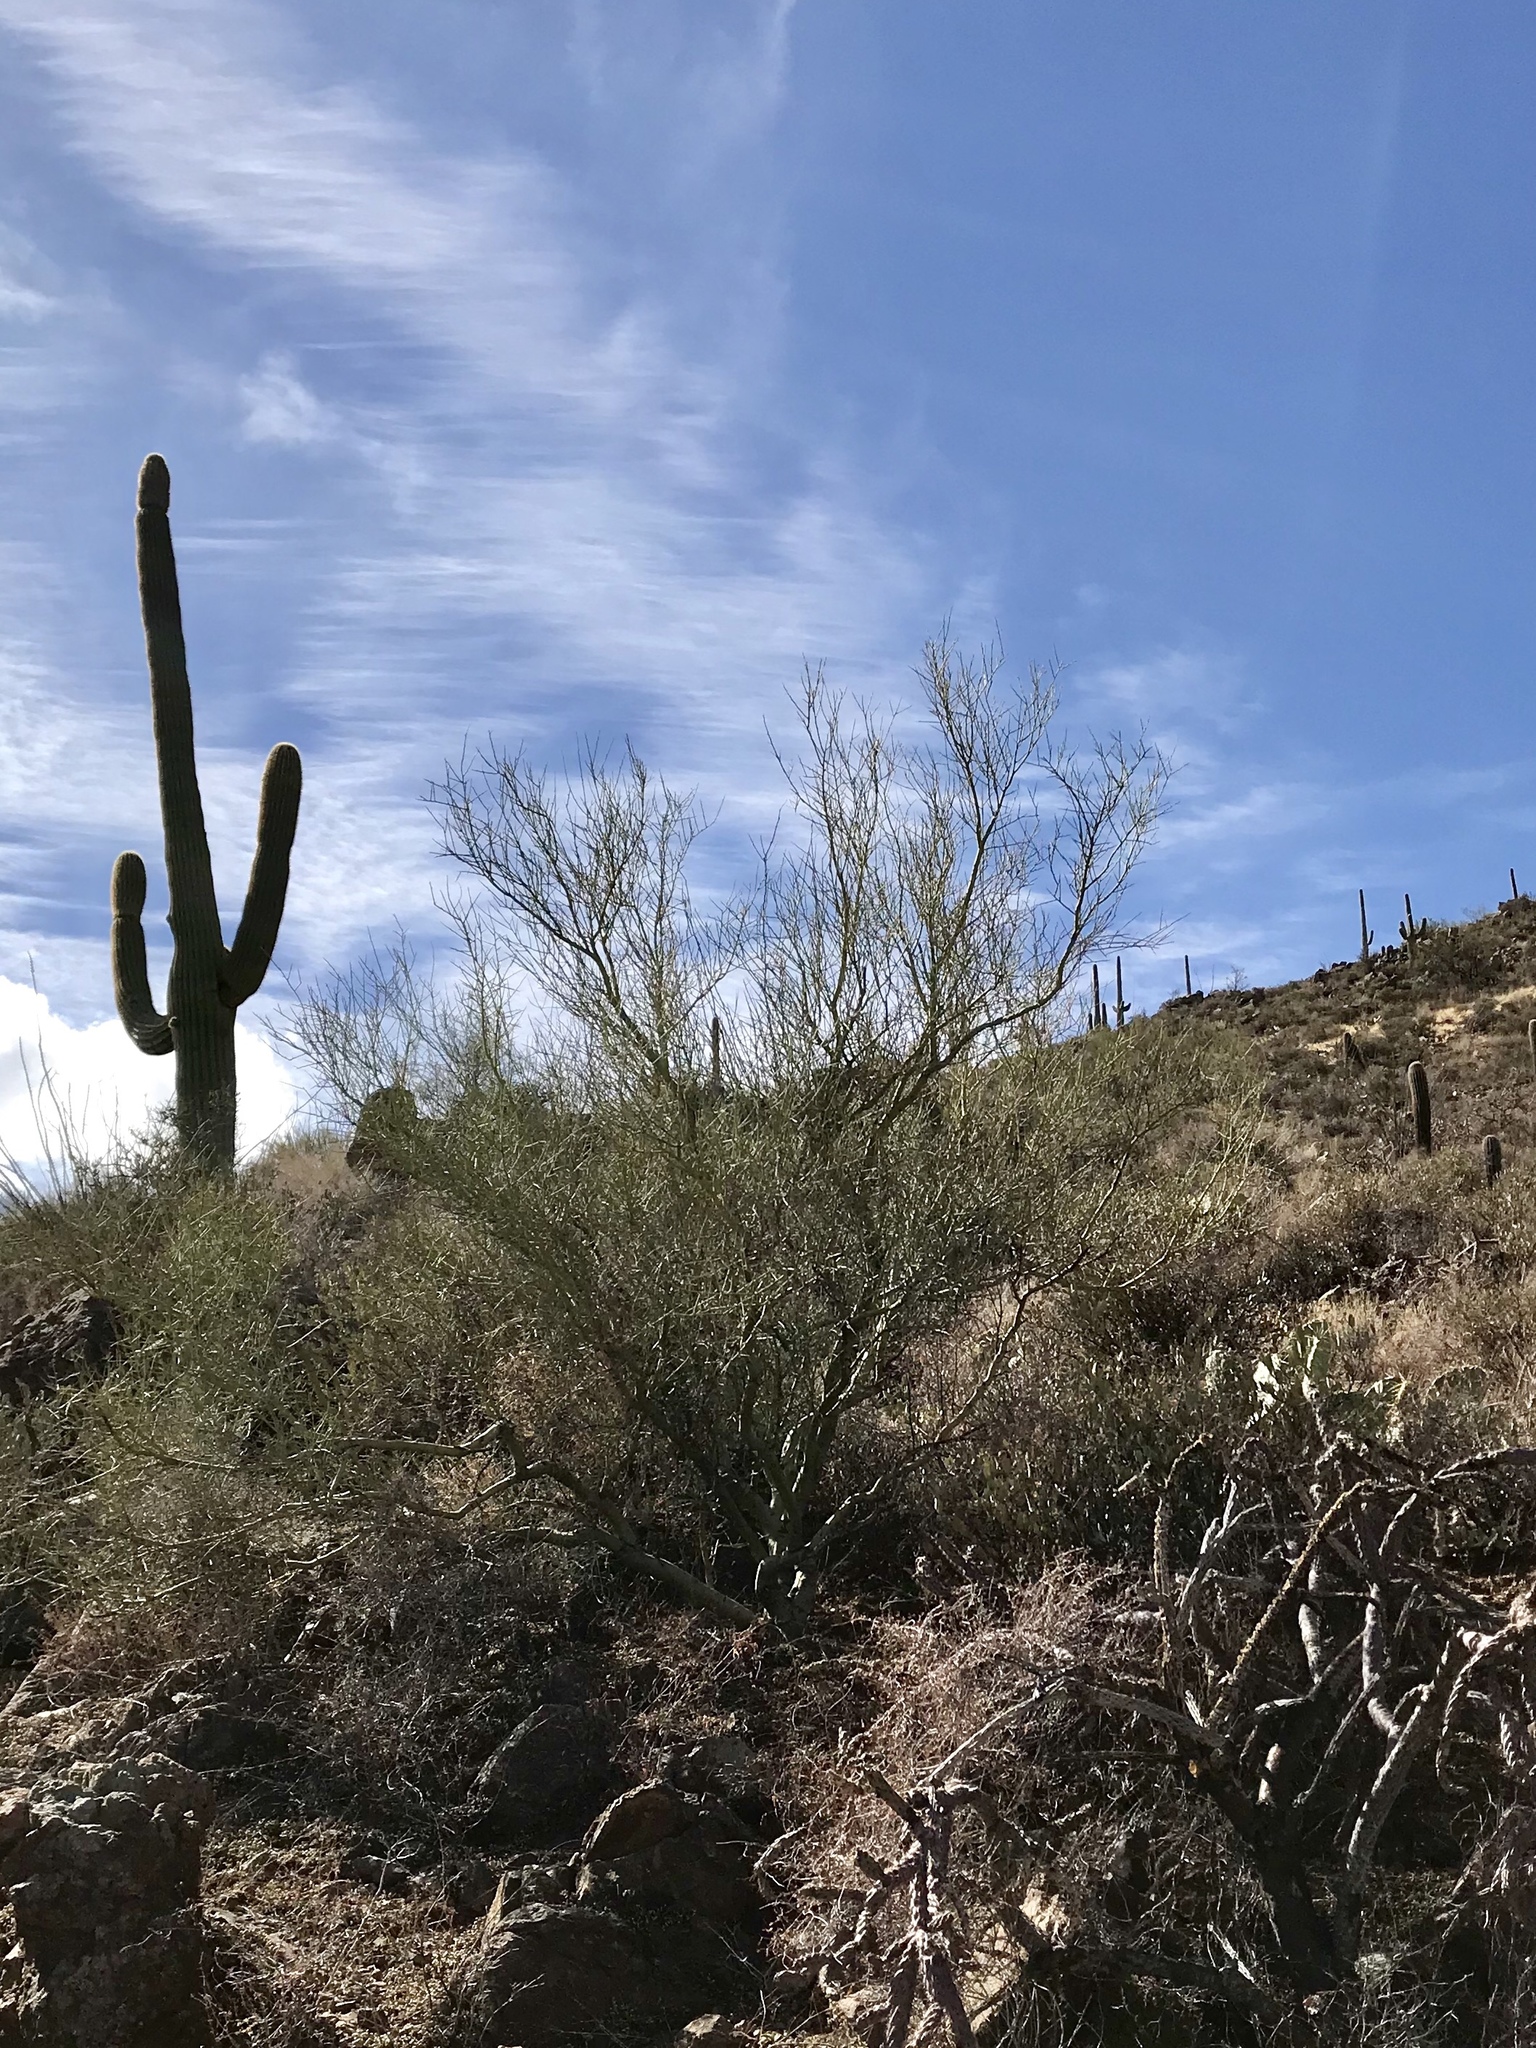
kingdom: Plantae
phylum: Tracheophyta
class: Magnoliopsida
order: Fabales
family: Fabaceae
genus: Parkinsonia
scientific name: Parkinsonia microphylla
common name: Yellow paloverde
